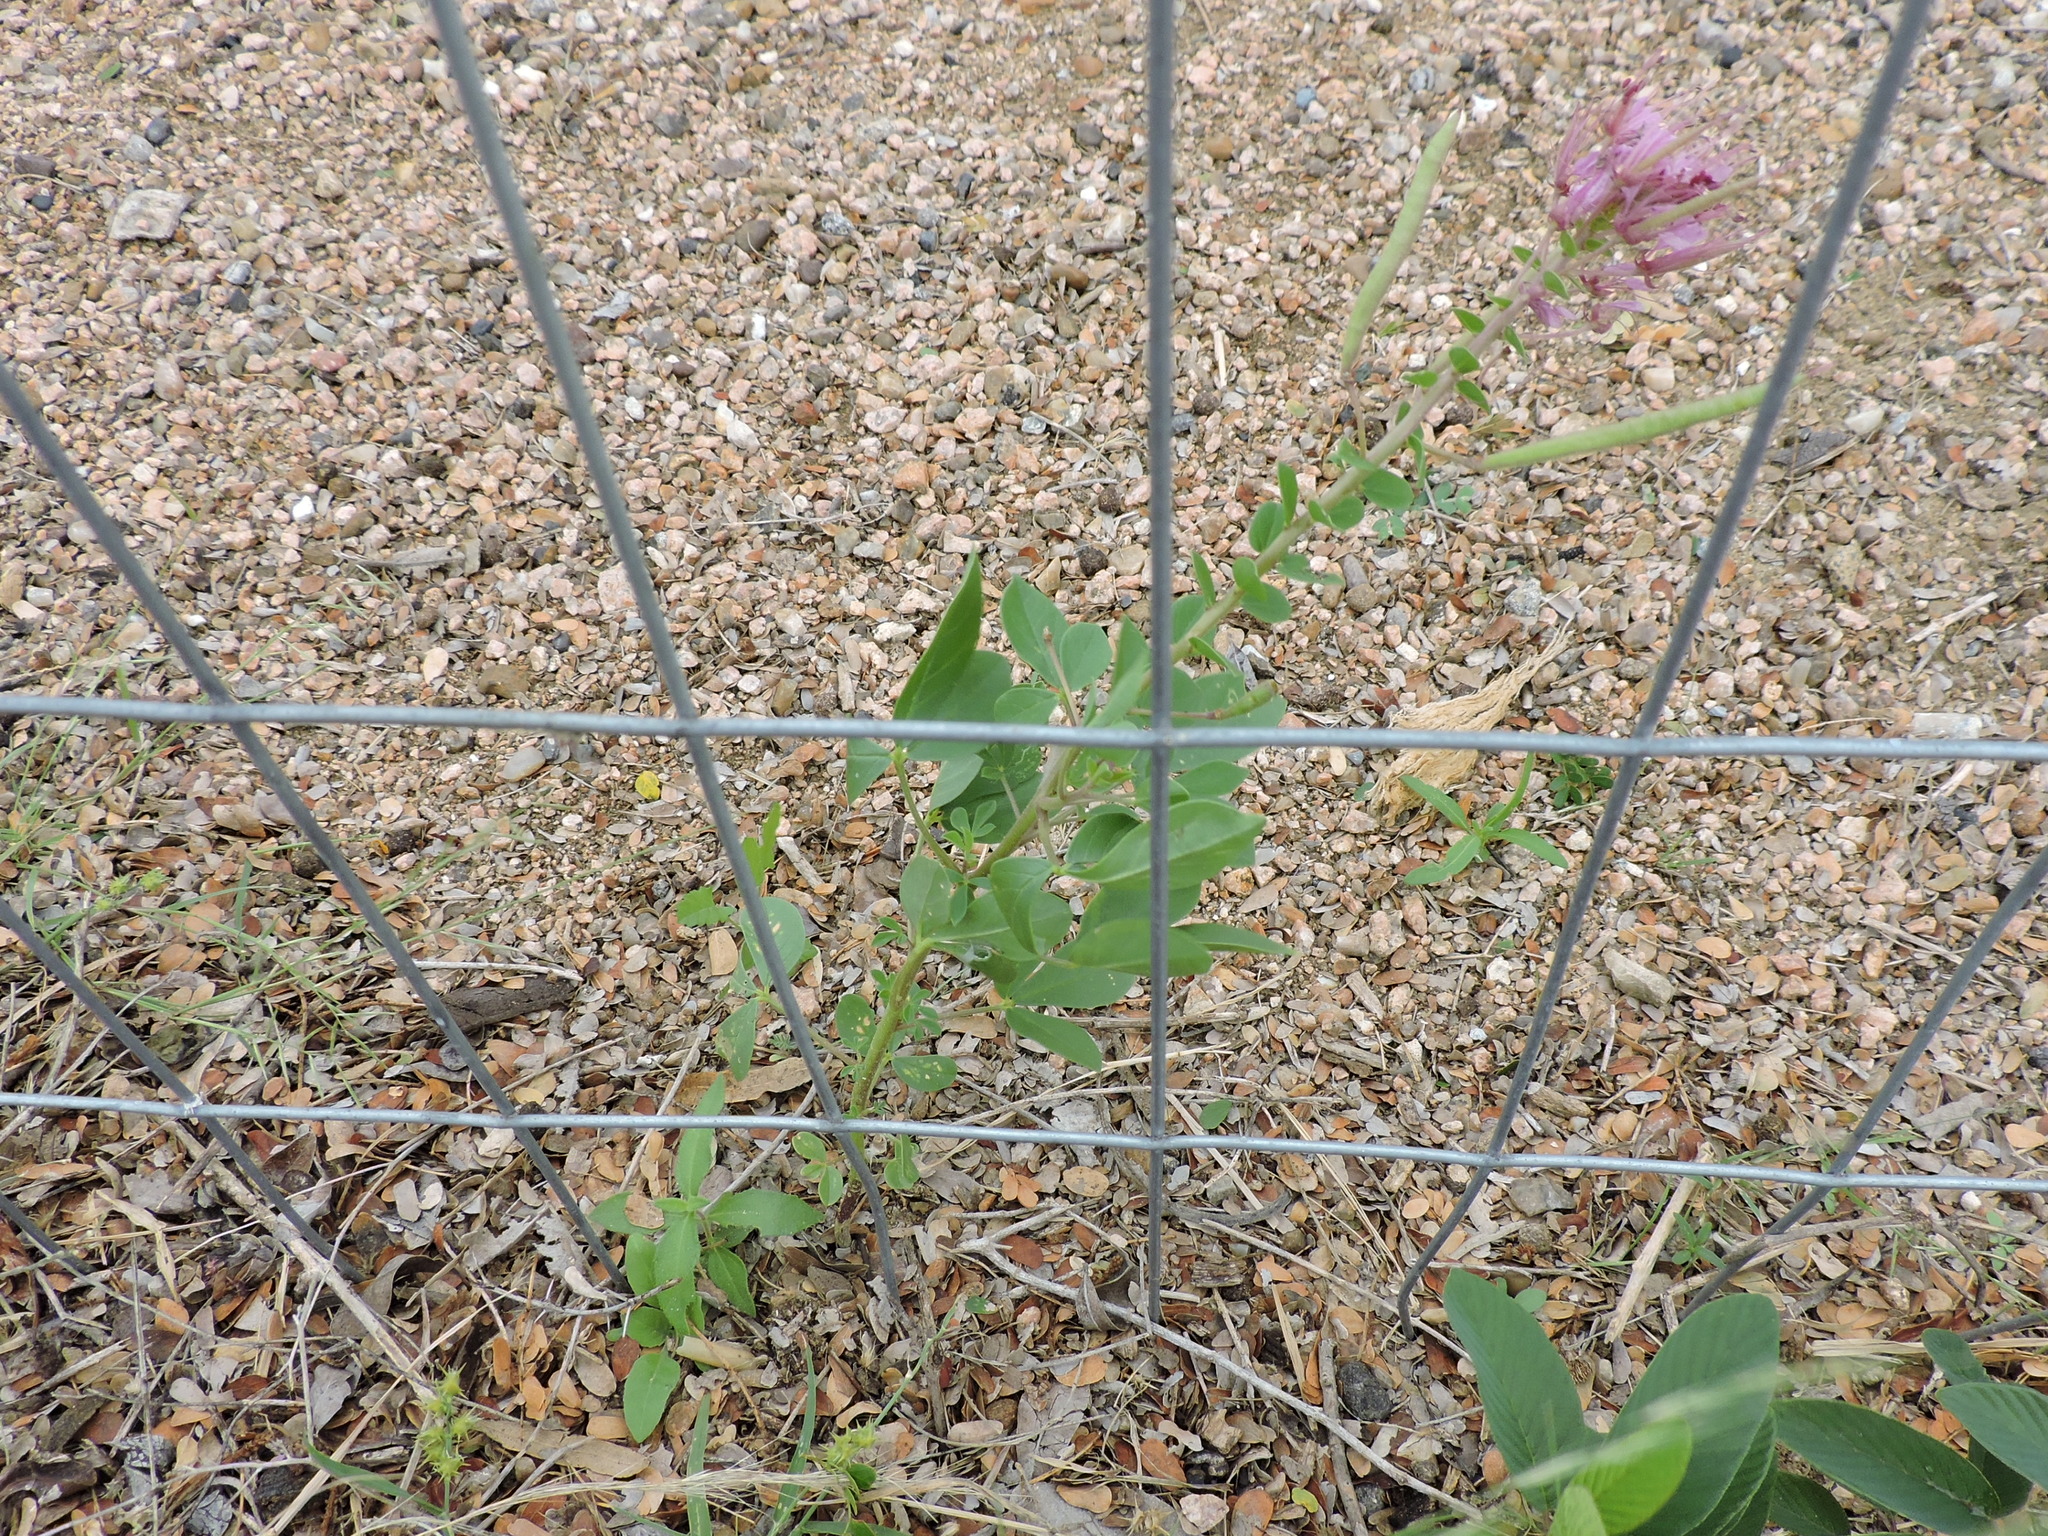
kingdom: Plantae
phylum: Tracheophyta
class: Magnoliopsida
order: Brassicales
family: Cleomaceae
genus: Polanisia
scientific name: Polanisia dodecandra
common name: Clammyweed
